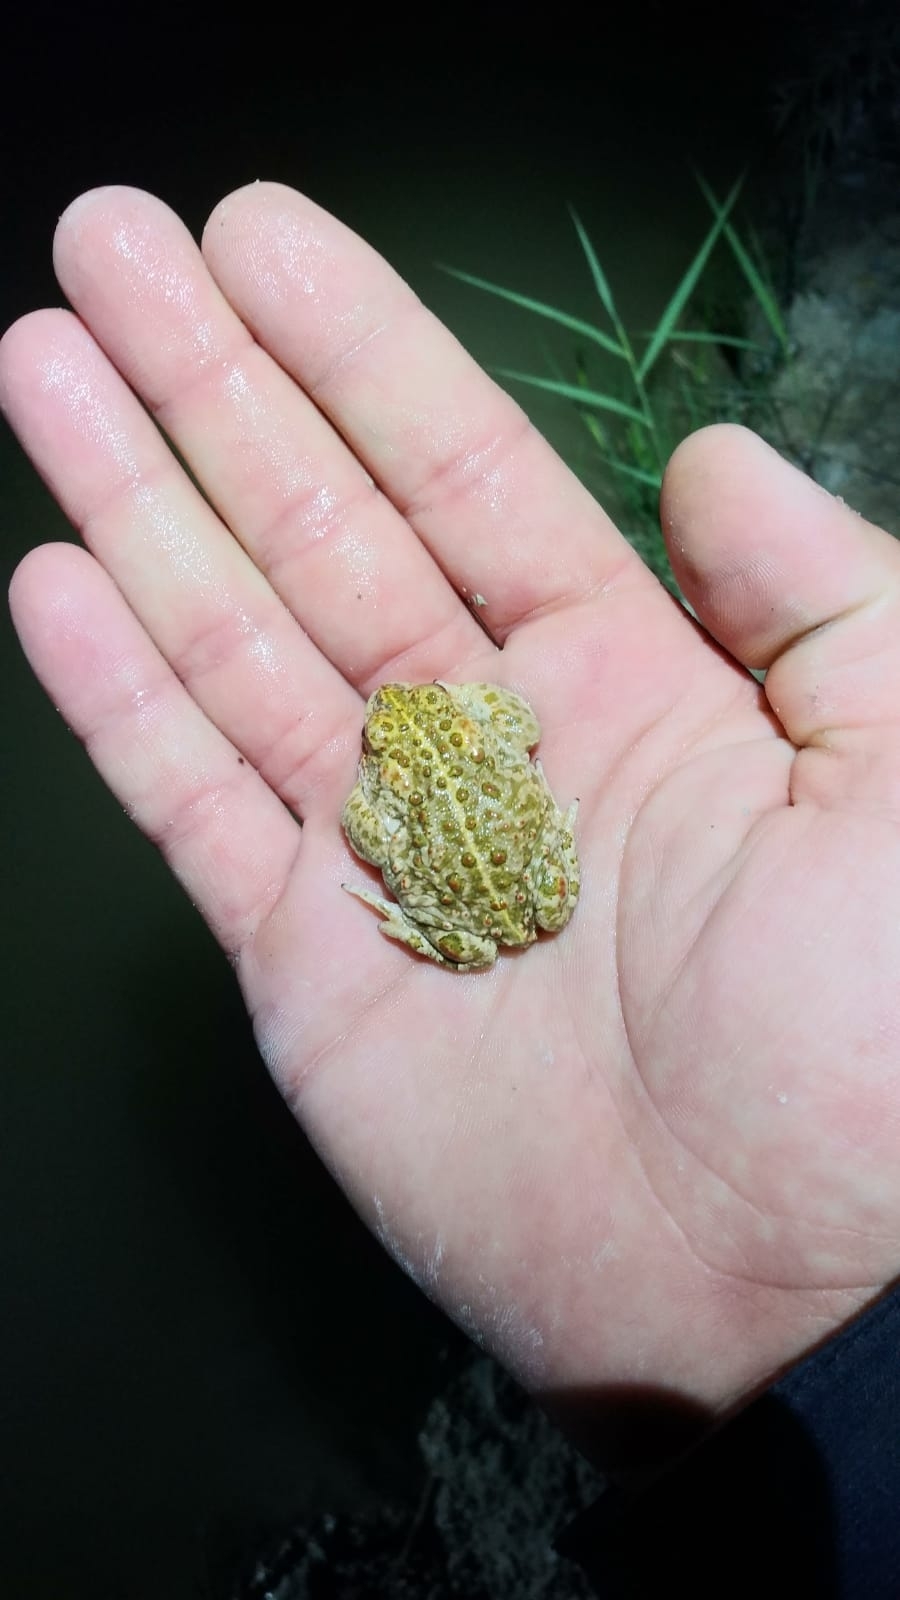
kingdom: Animalia
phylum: Chordata
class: Amphibia
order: Anura
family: Bufonidae
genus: Epidalea
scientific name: Epidalea calamita
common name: Natterjack toad
